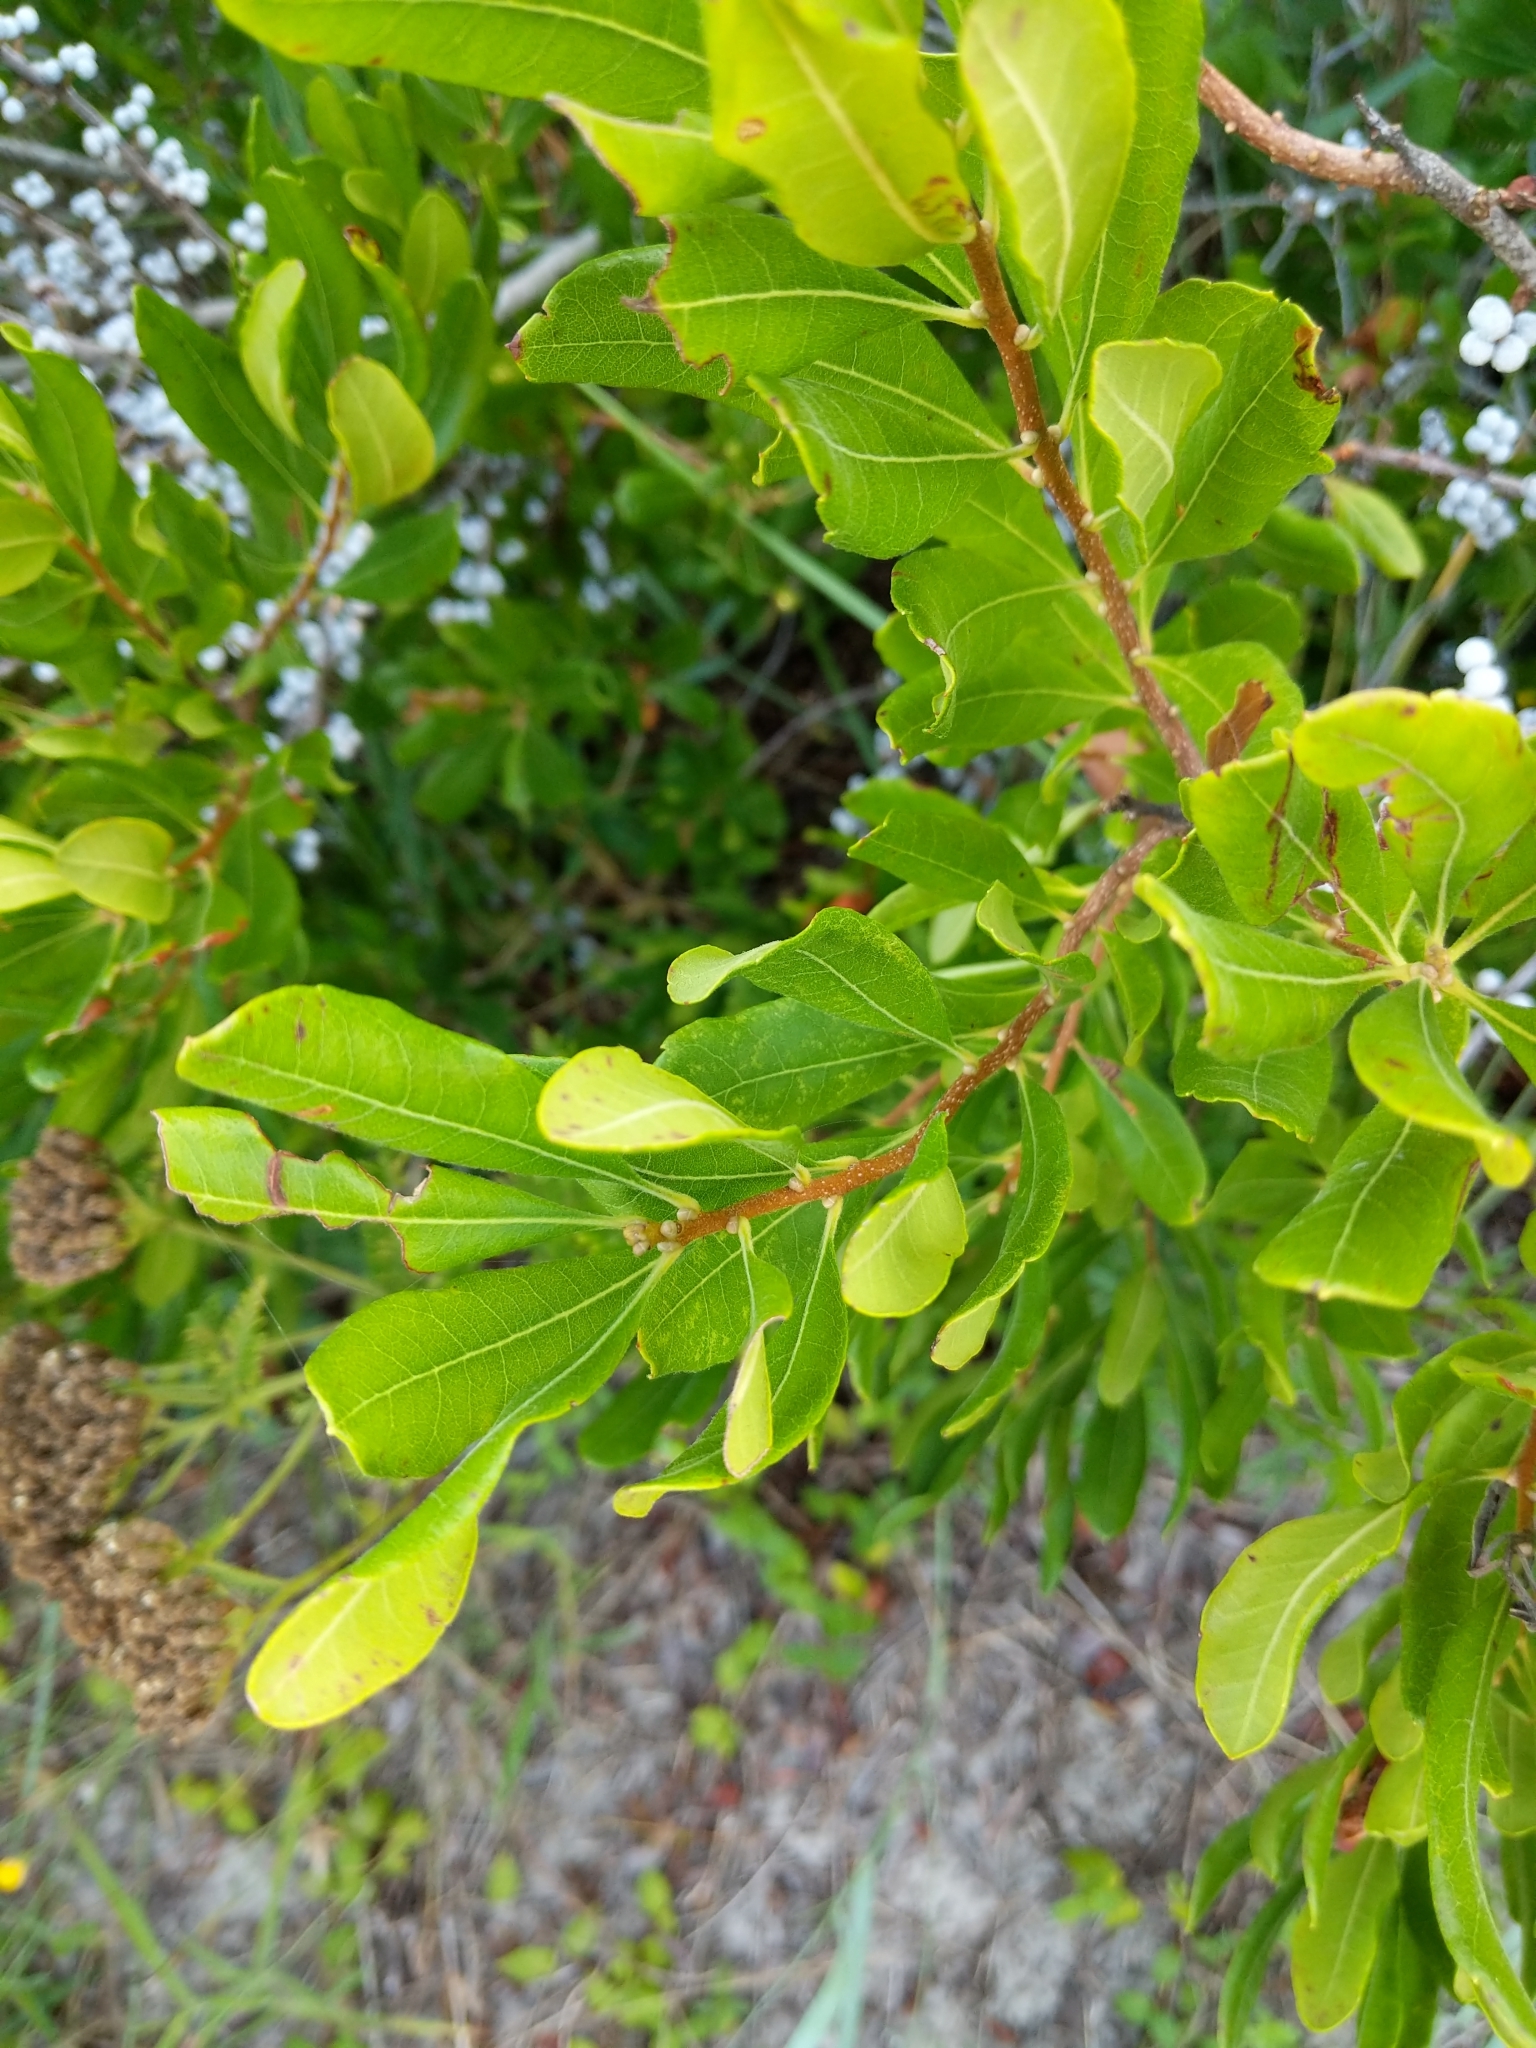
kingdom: Plantae
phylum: Tracheophyta
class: Magnoliopsida
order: Fagales
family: Myricaceae
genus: Morella
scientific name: Morella pensylvanica
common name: Northern bayberry
